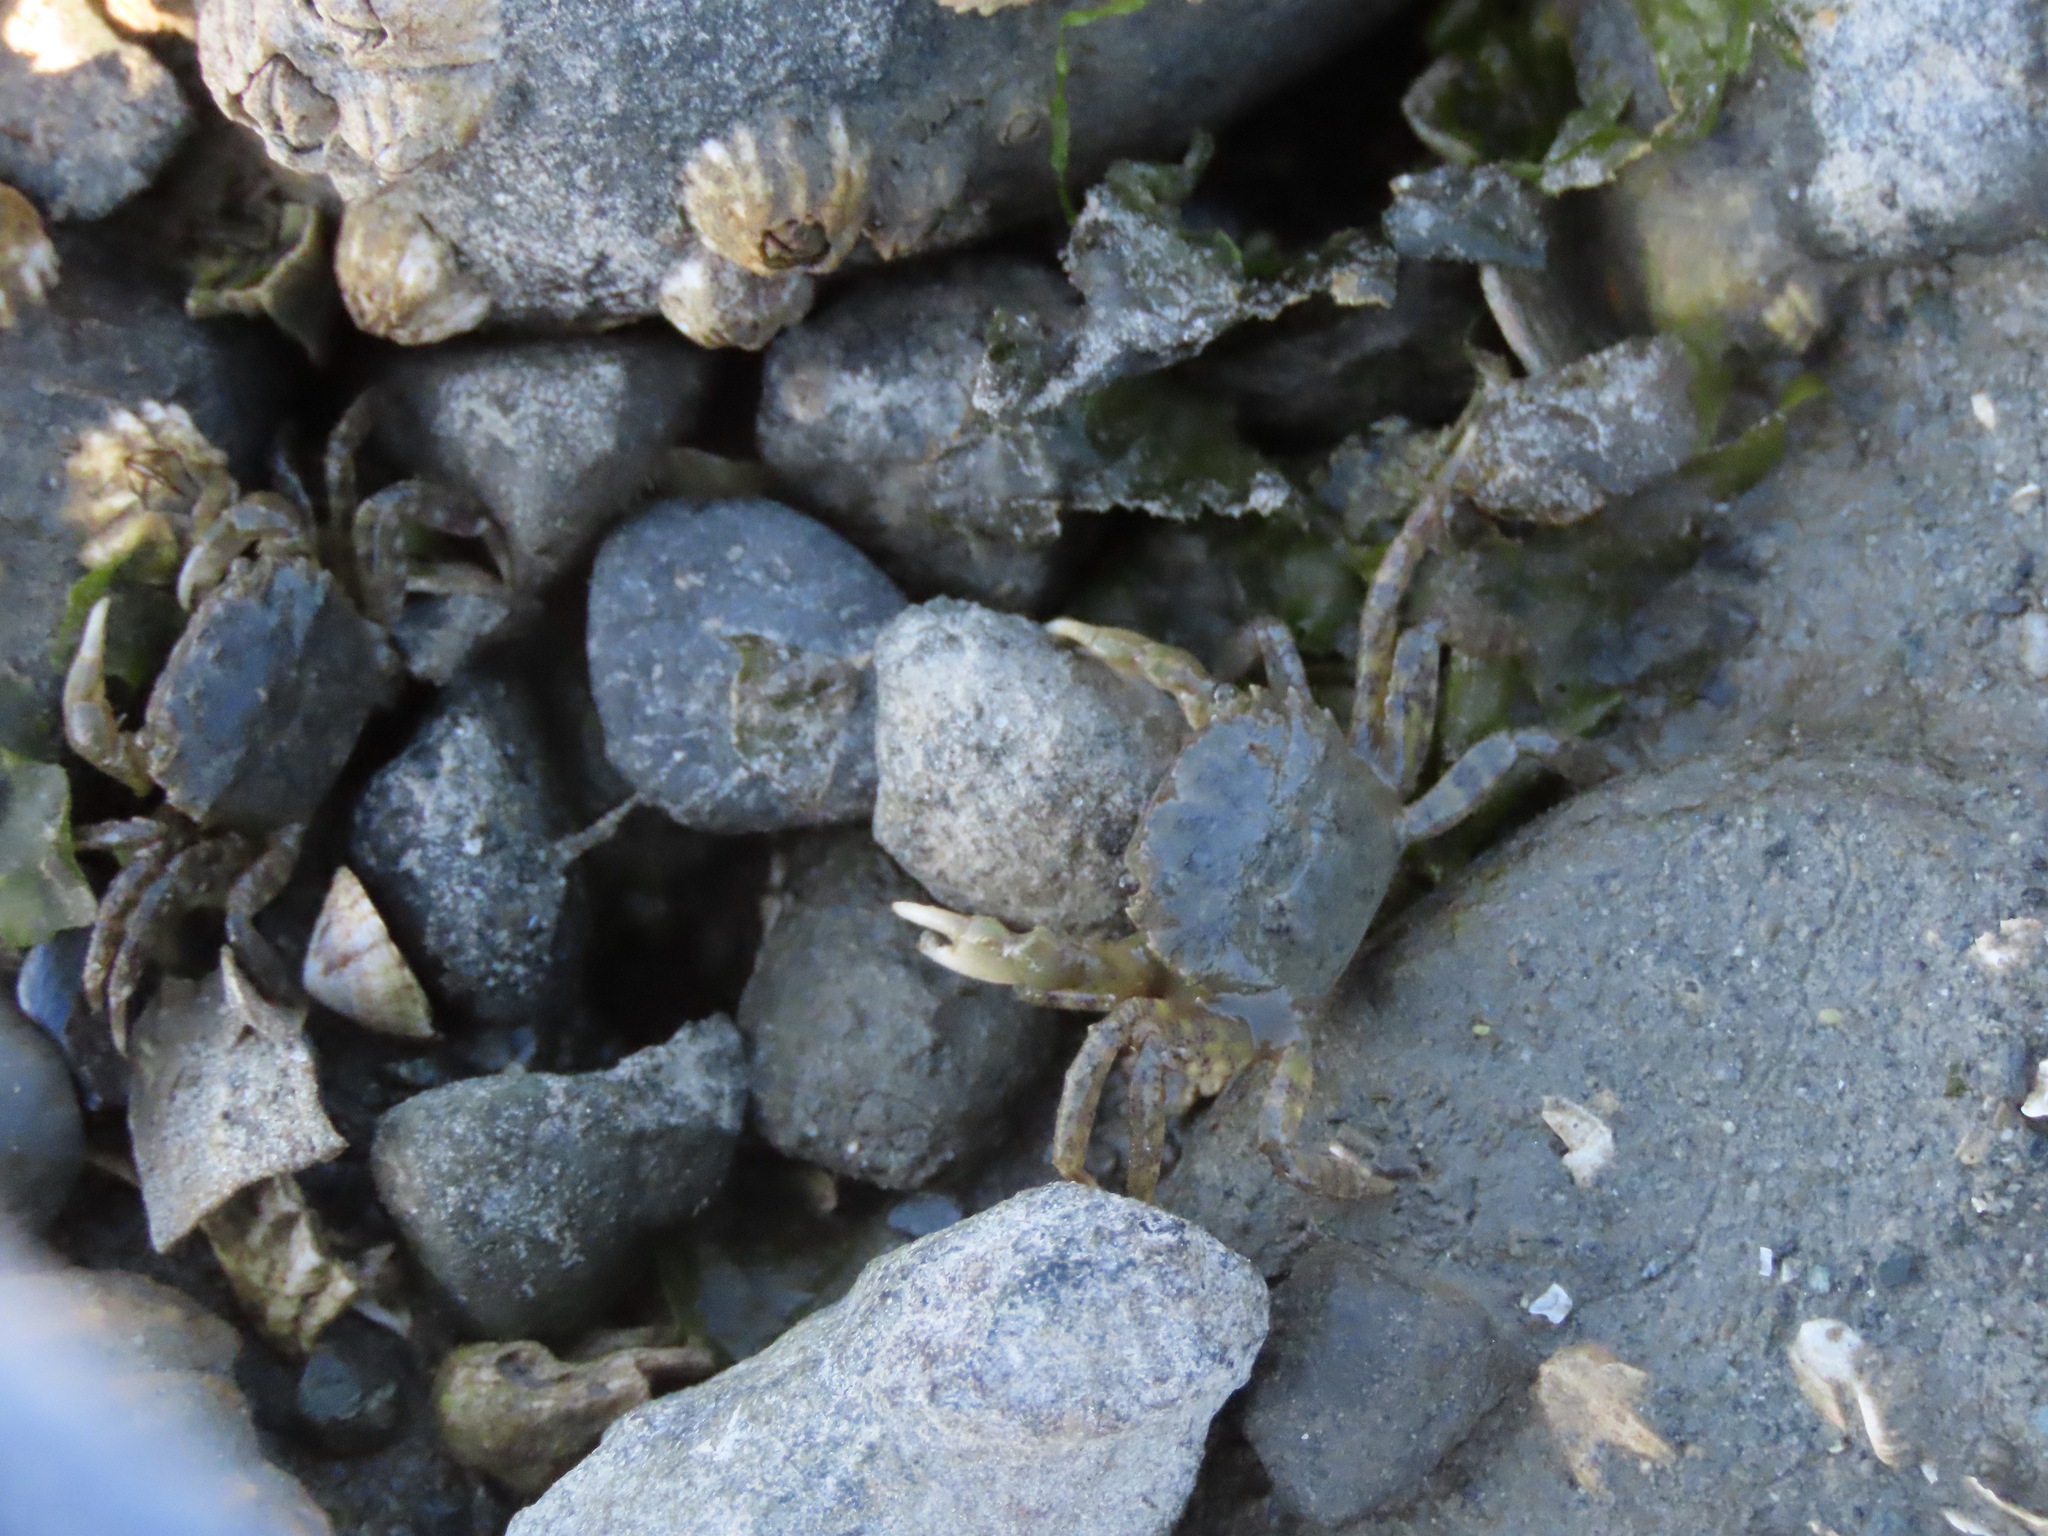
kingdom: Animalia
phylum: Arthropoda
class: Malacostraca
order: Decapoda
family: Varunidae
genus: Hemigrapsus
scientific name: Hemigrapsus oregonensis
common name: Yellow shore crab
